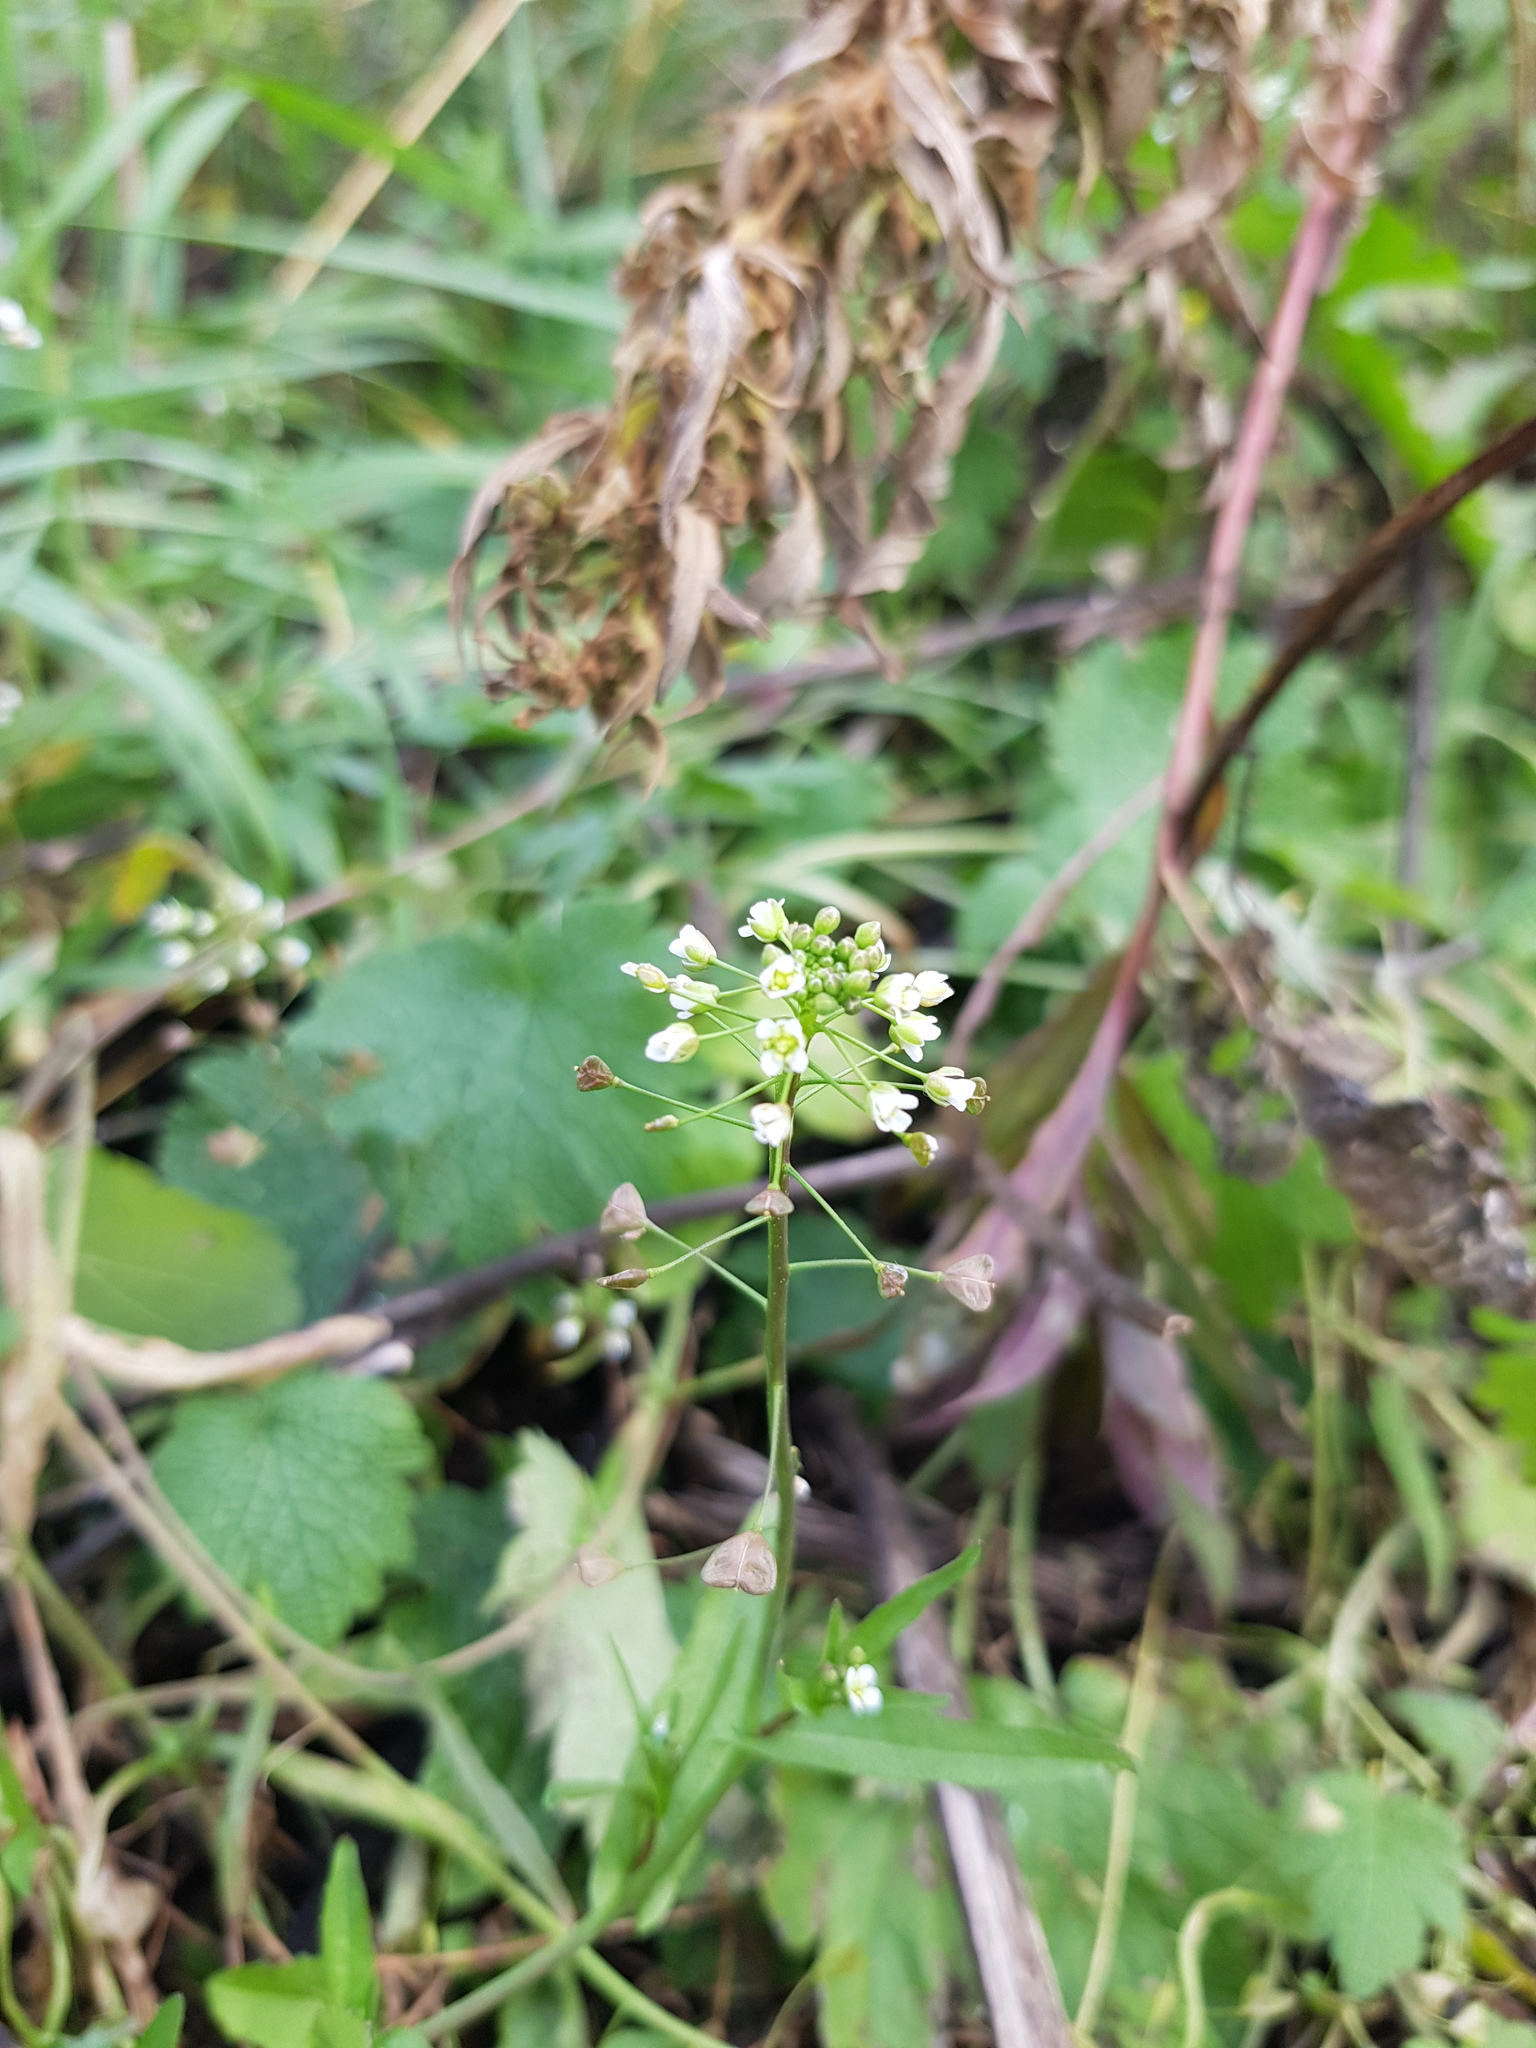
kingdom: Plantae
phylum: Tracheophyta
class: Magnoliopsida
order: Brassicales
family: Brassicaceae
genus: Capsella
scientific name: Capsella bursa-pastoris
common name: Shepherd's purse
